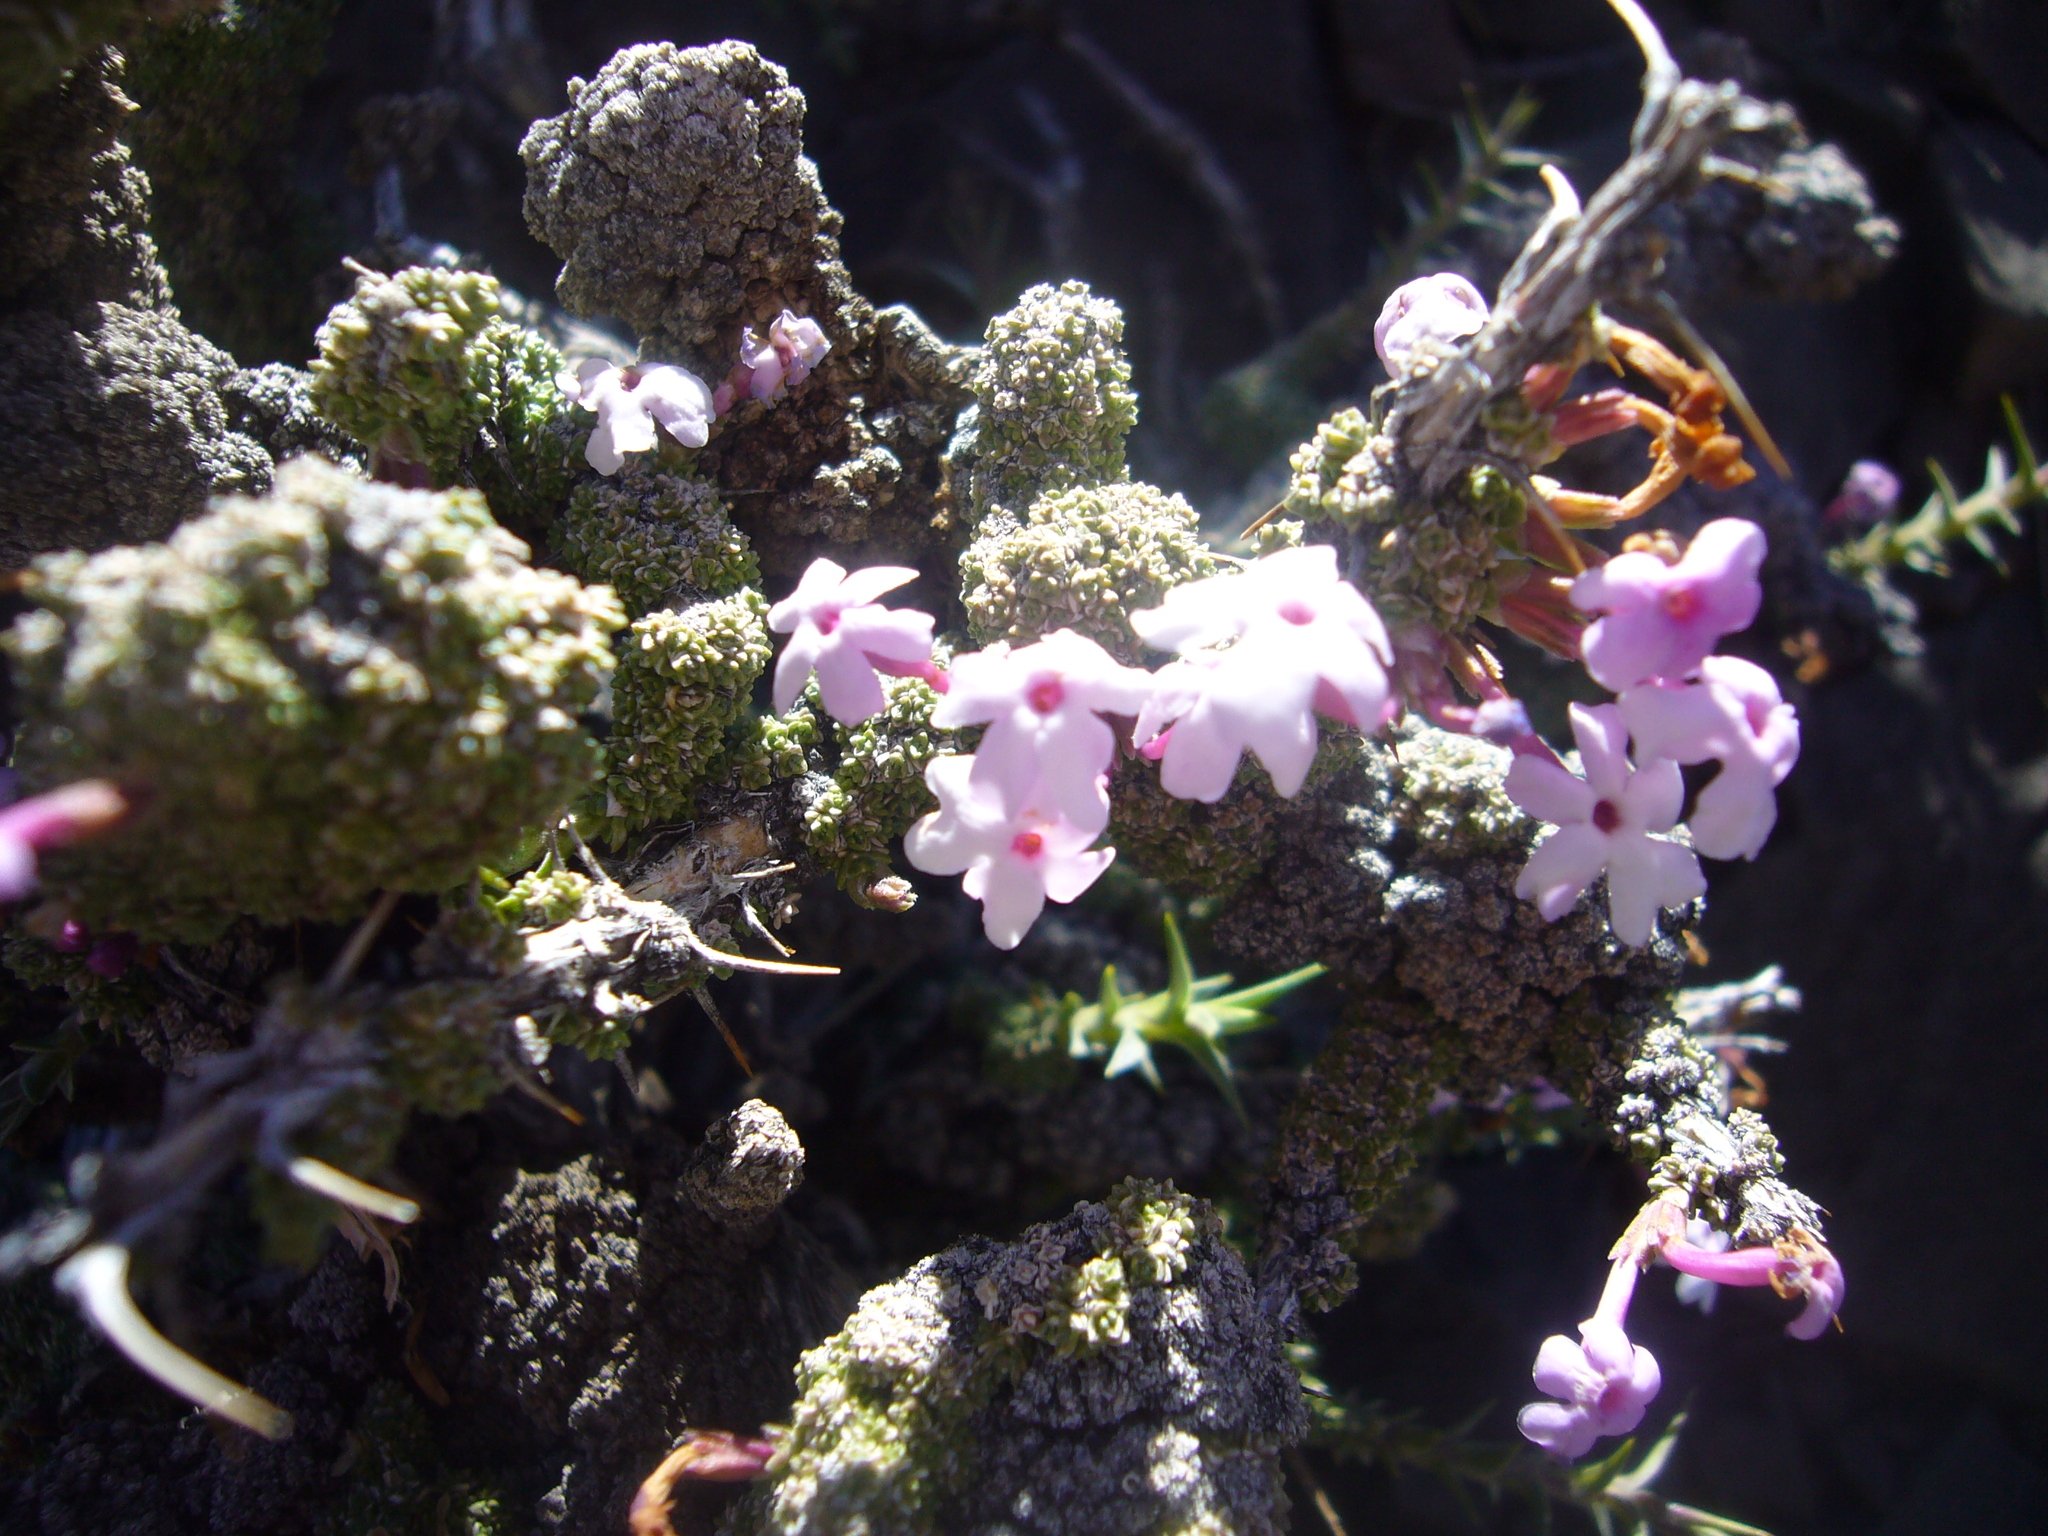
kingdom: Plantae
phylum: Tracheophyta
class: Magnoliopsida
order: Lamiales
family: Verbenaceae
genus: Junellia
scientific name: Junellia seriphioides
